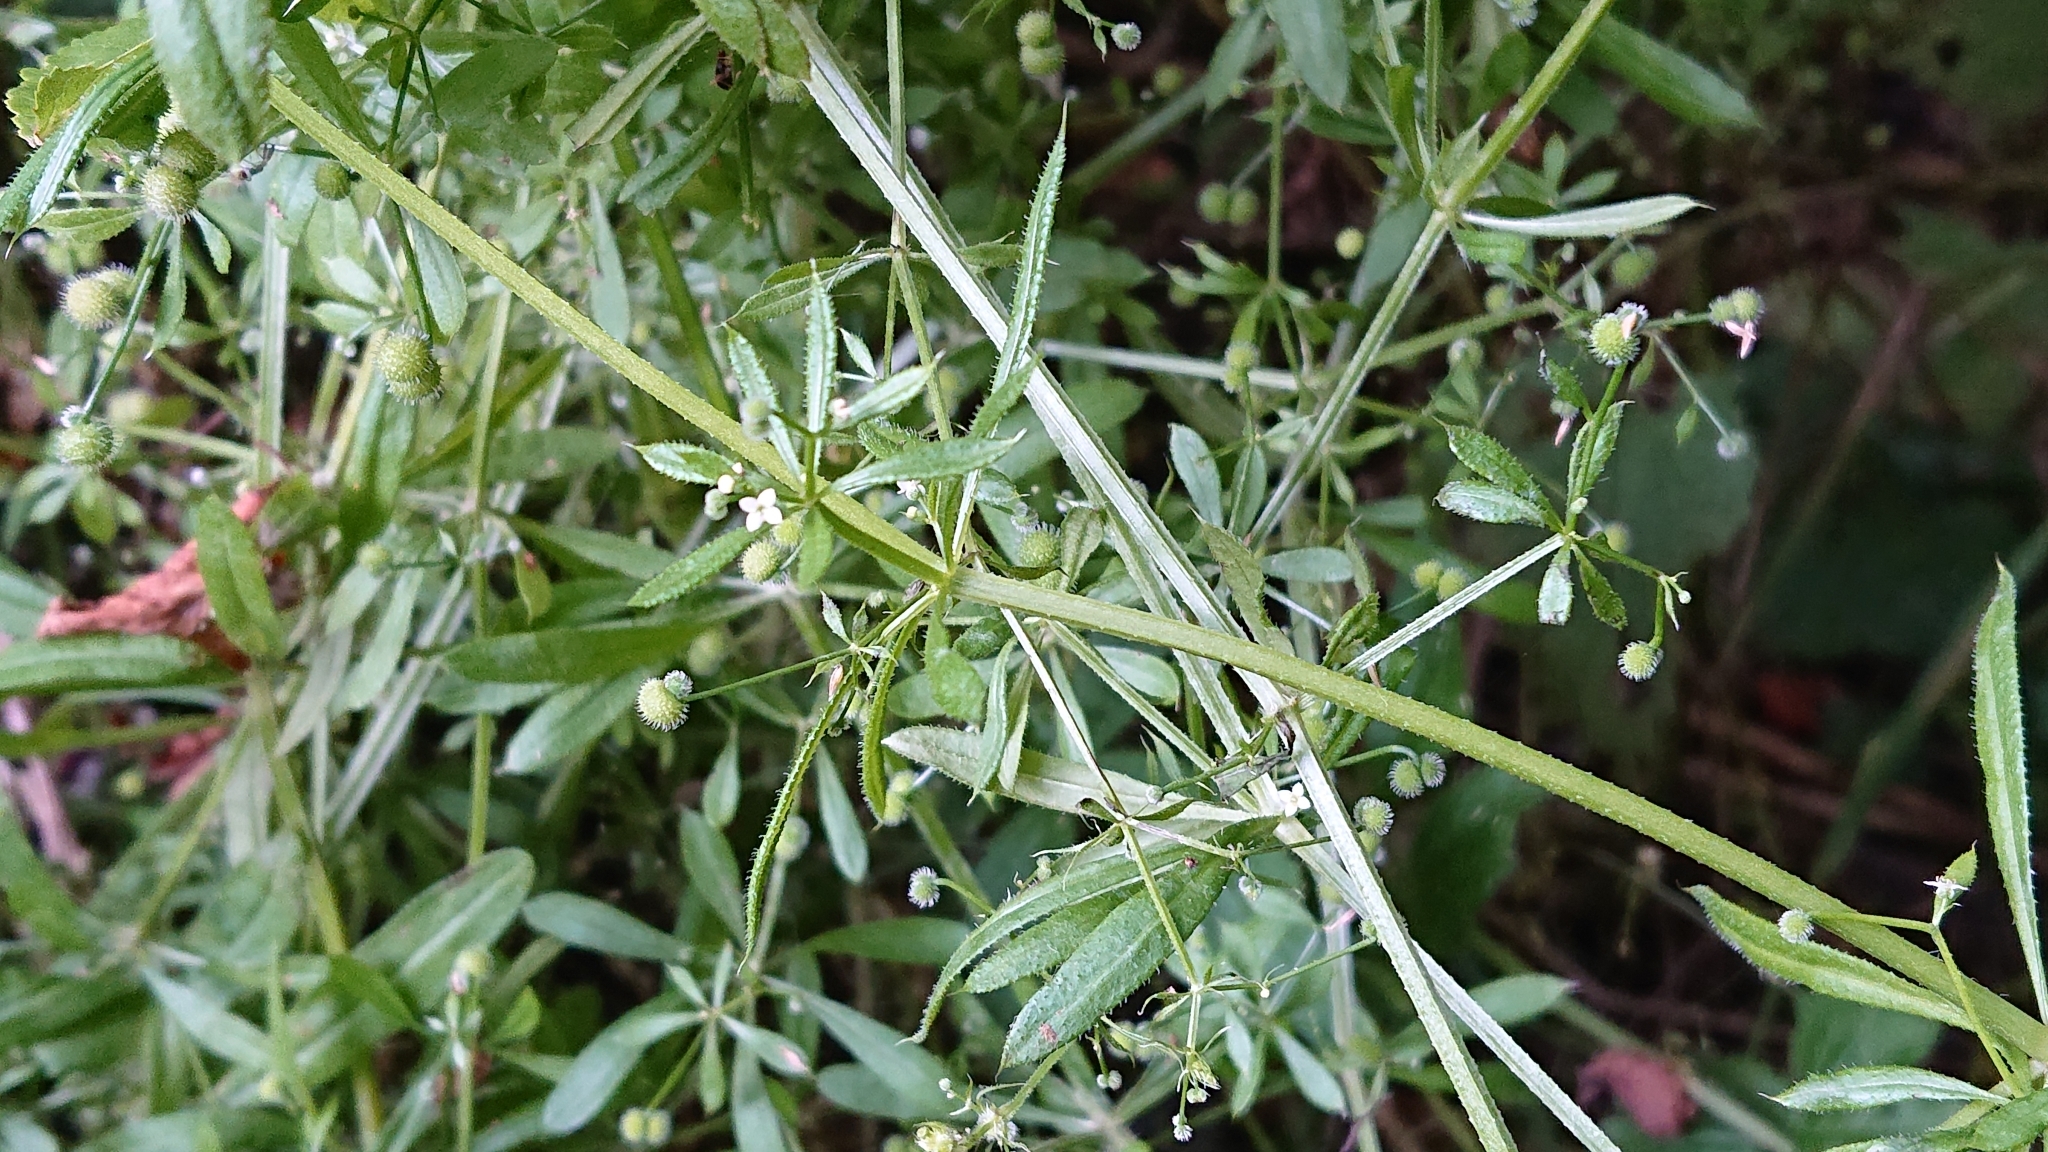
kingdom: Plantae
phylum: Tracheophyta
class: Magnoliopsida
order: Gentianales
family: Rubiaceae
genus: Galium
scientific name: Galium aparine
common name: Cleavers
